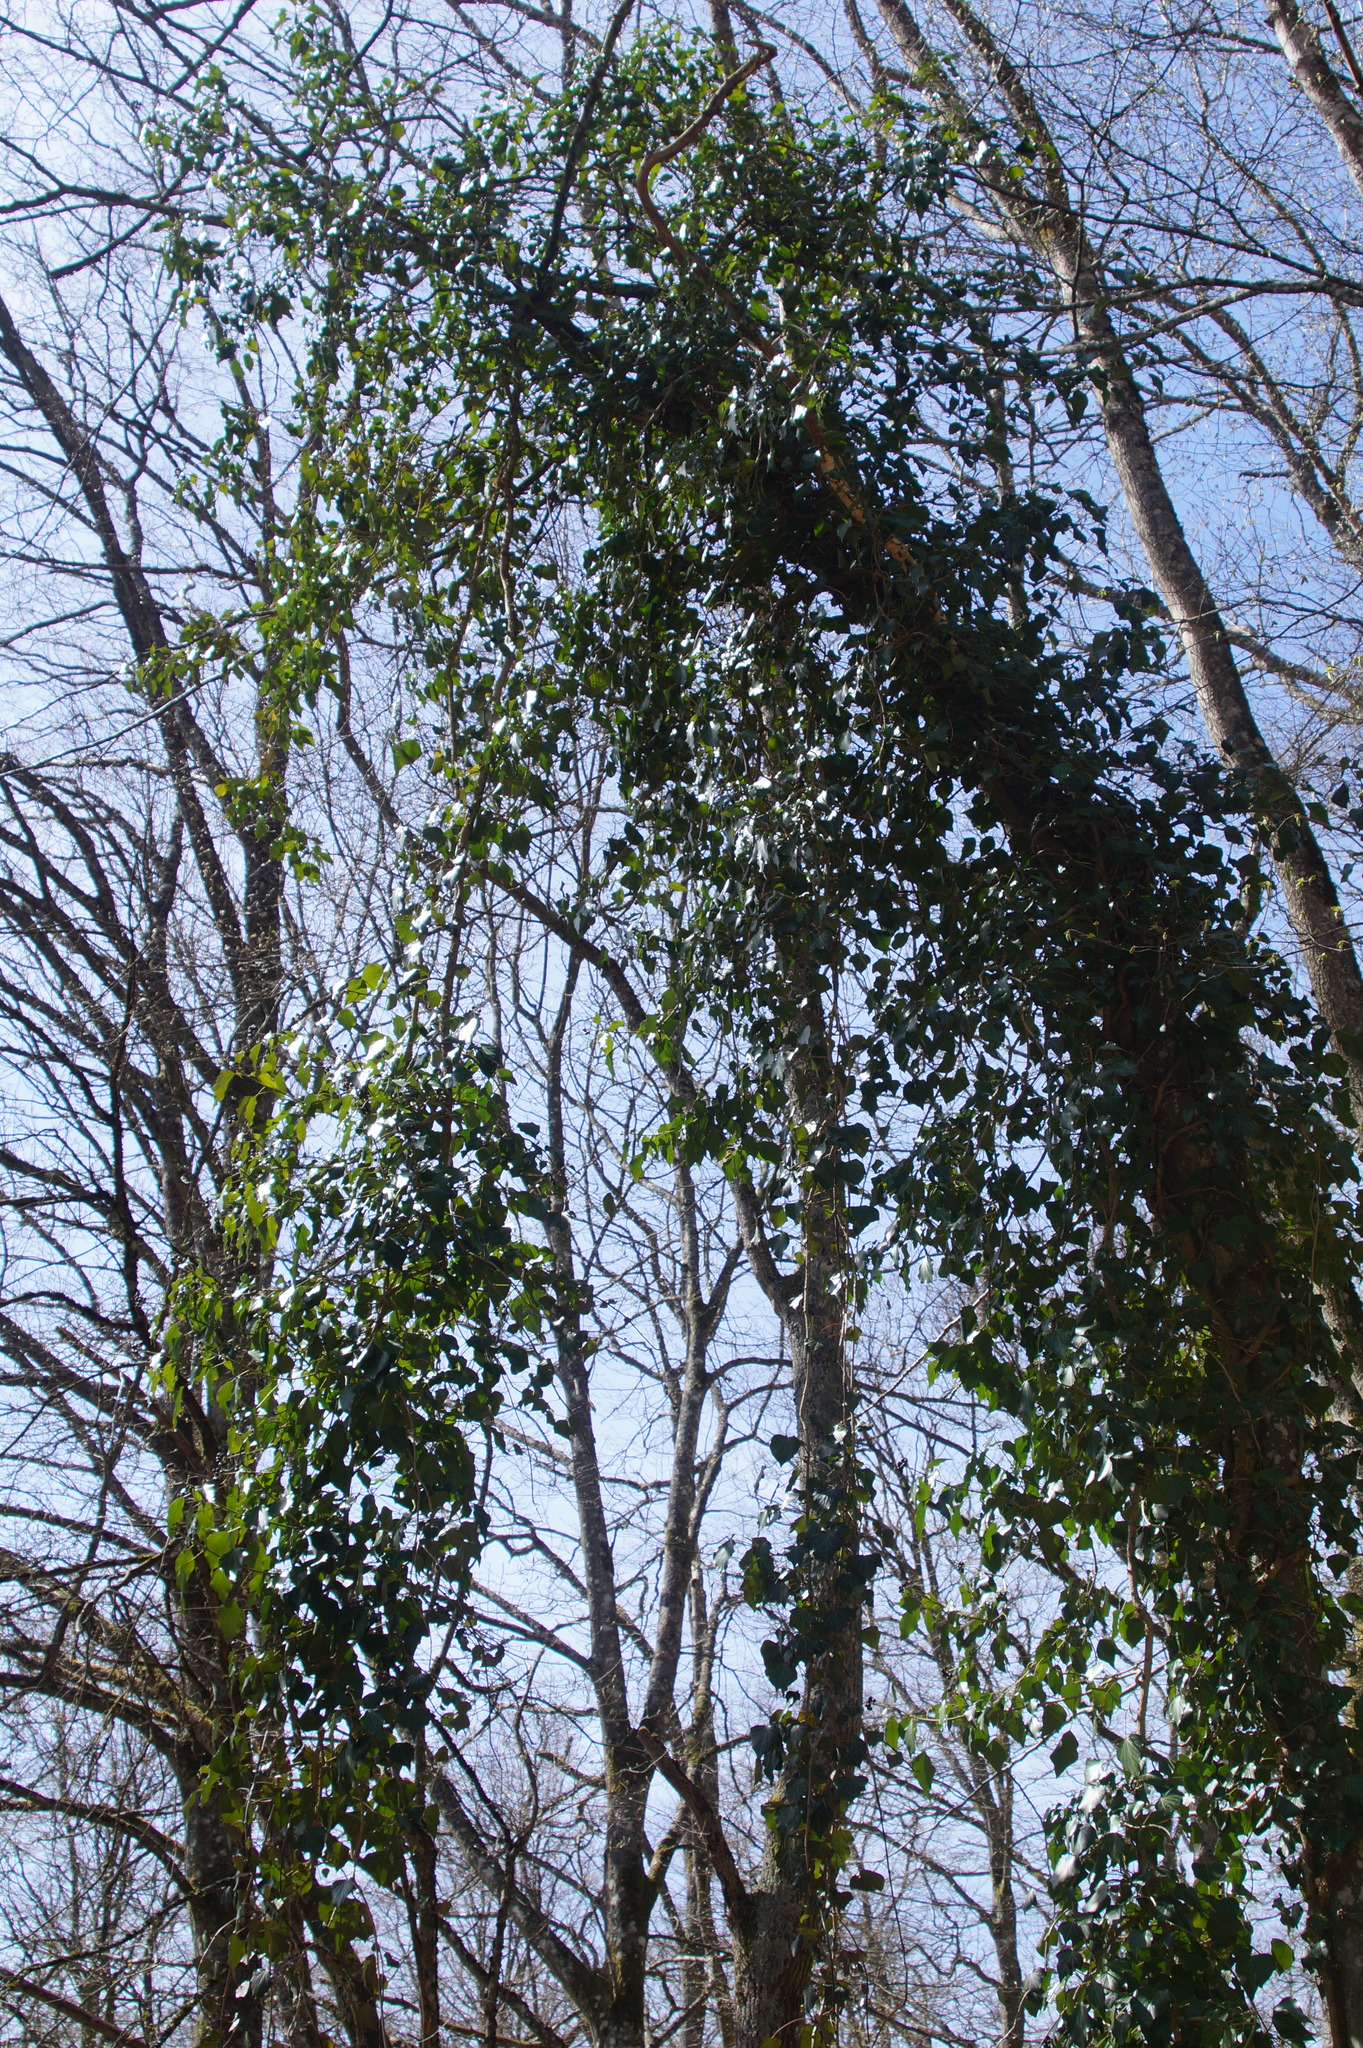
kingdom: Plantae
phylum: Tracheophyta
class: Magnoliopsida
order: Apiales
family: Araliaceae
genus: Hedera
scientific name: Hedera helix
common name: Ivy
